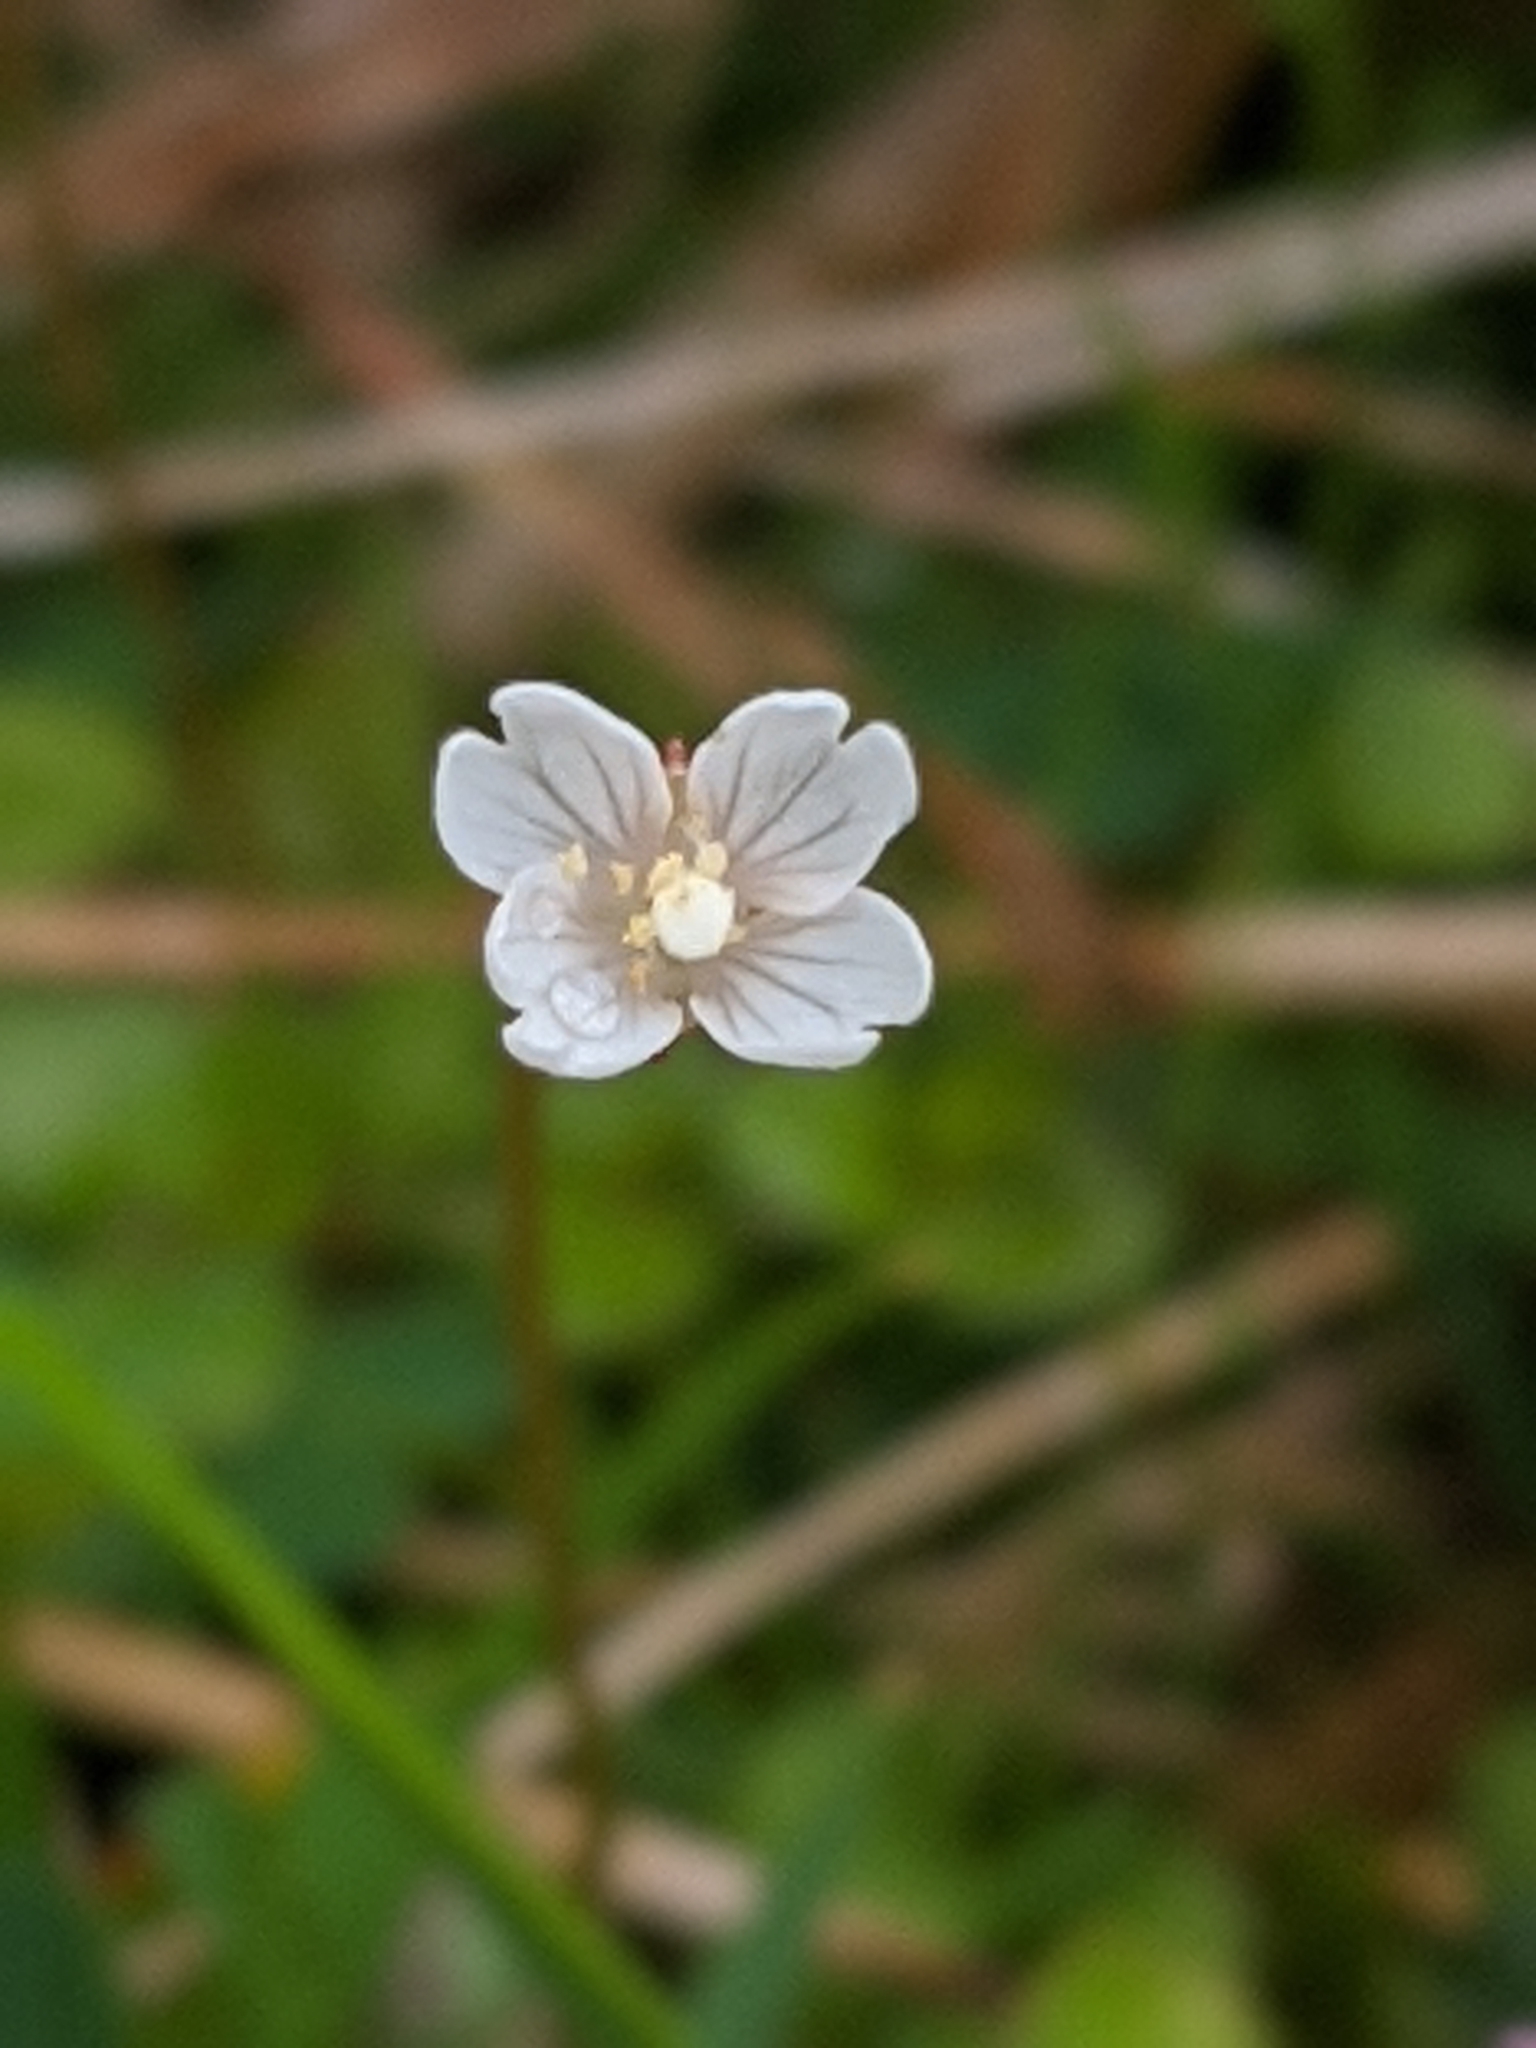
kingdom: Plantae
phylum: Tracheophyta
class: Magnoliopsida
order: Myrtales
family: Onagraceae
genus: Epilobium
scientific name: Epilobium brunnescens
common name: New zealand willowherb
